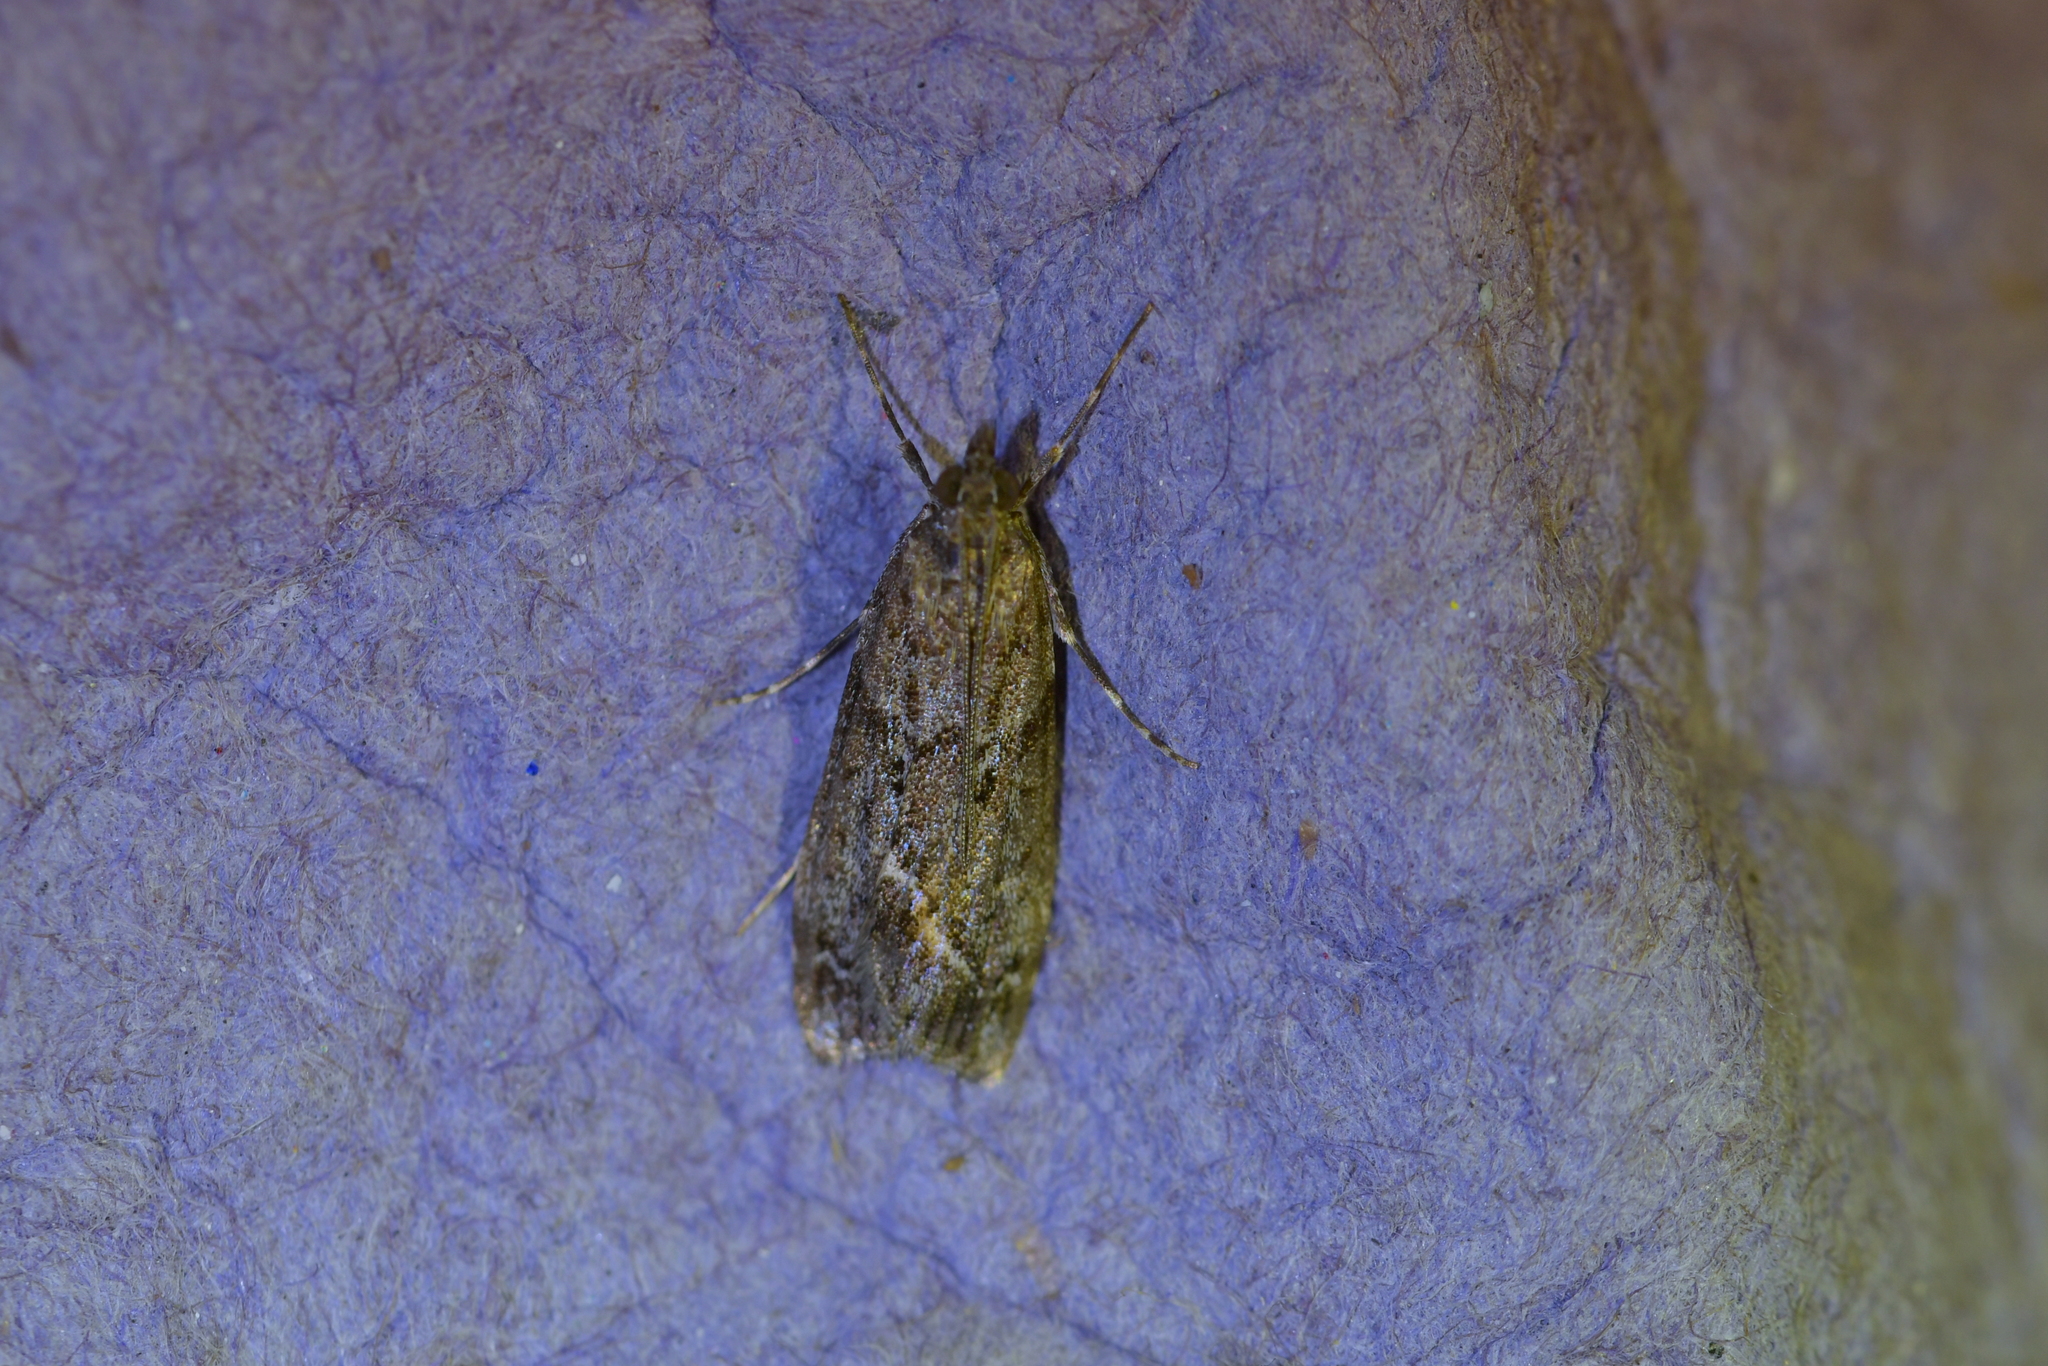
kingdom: Animalia
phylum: Arthropoda
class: Insecta
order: Lepidoptera
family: Crambidae
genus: Eudonia
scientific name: Eudonia submarginalis
